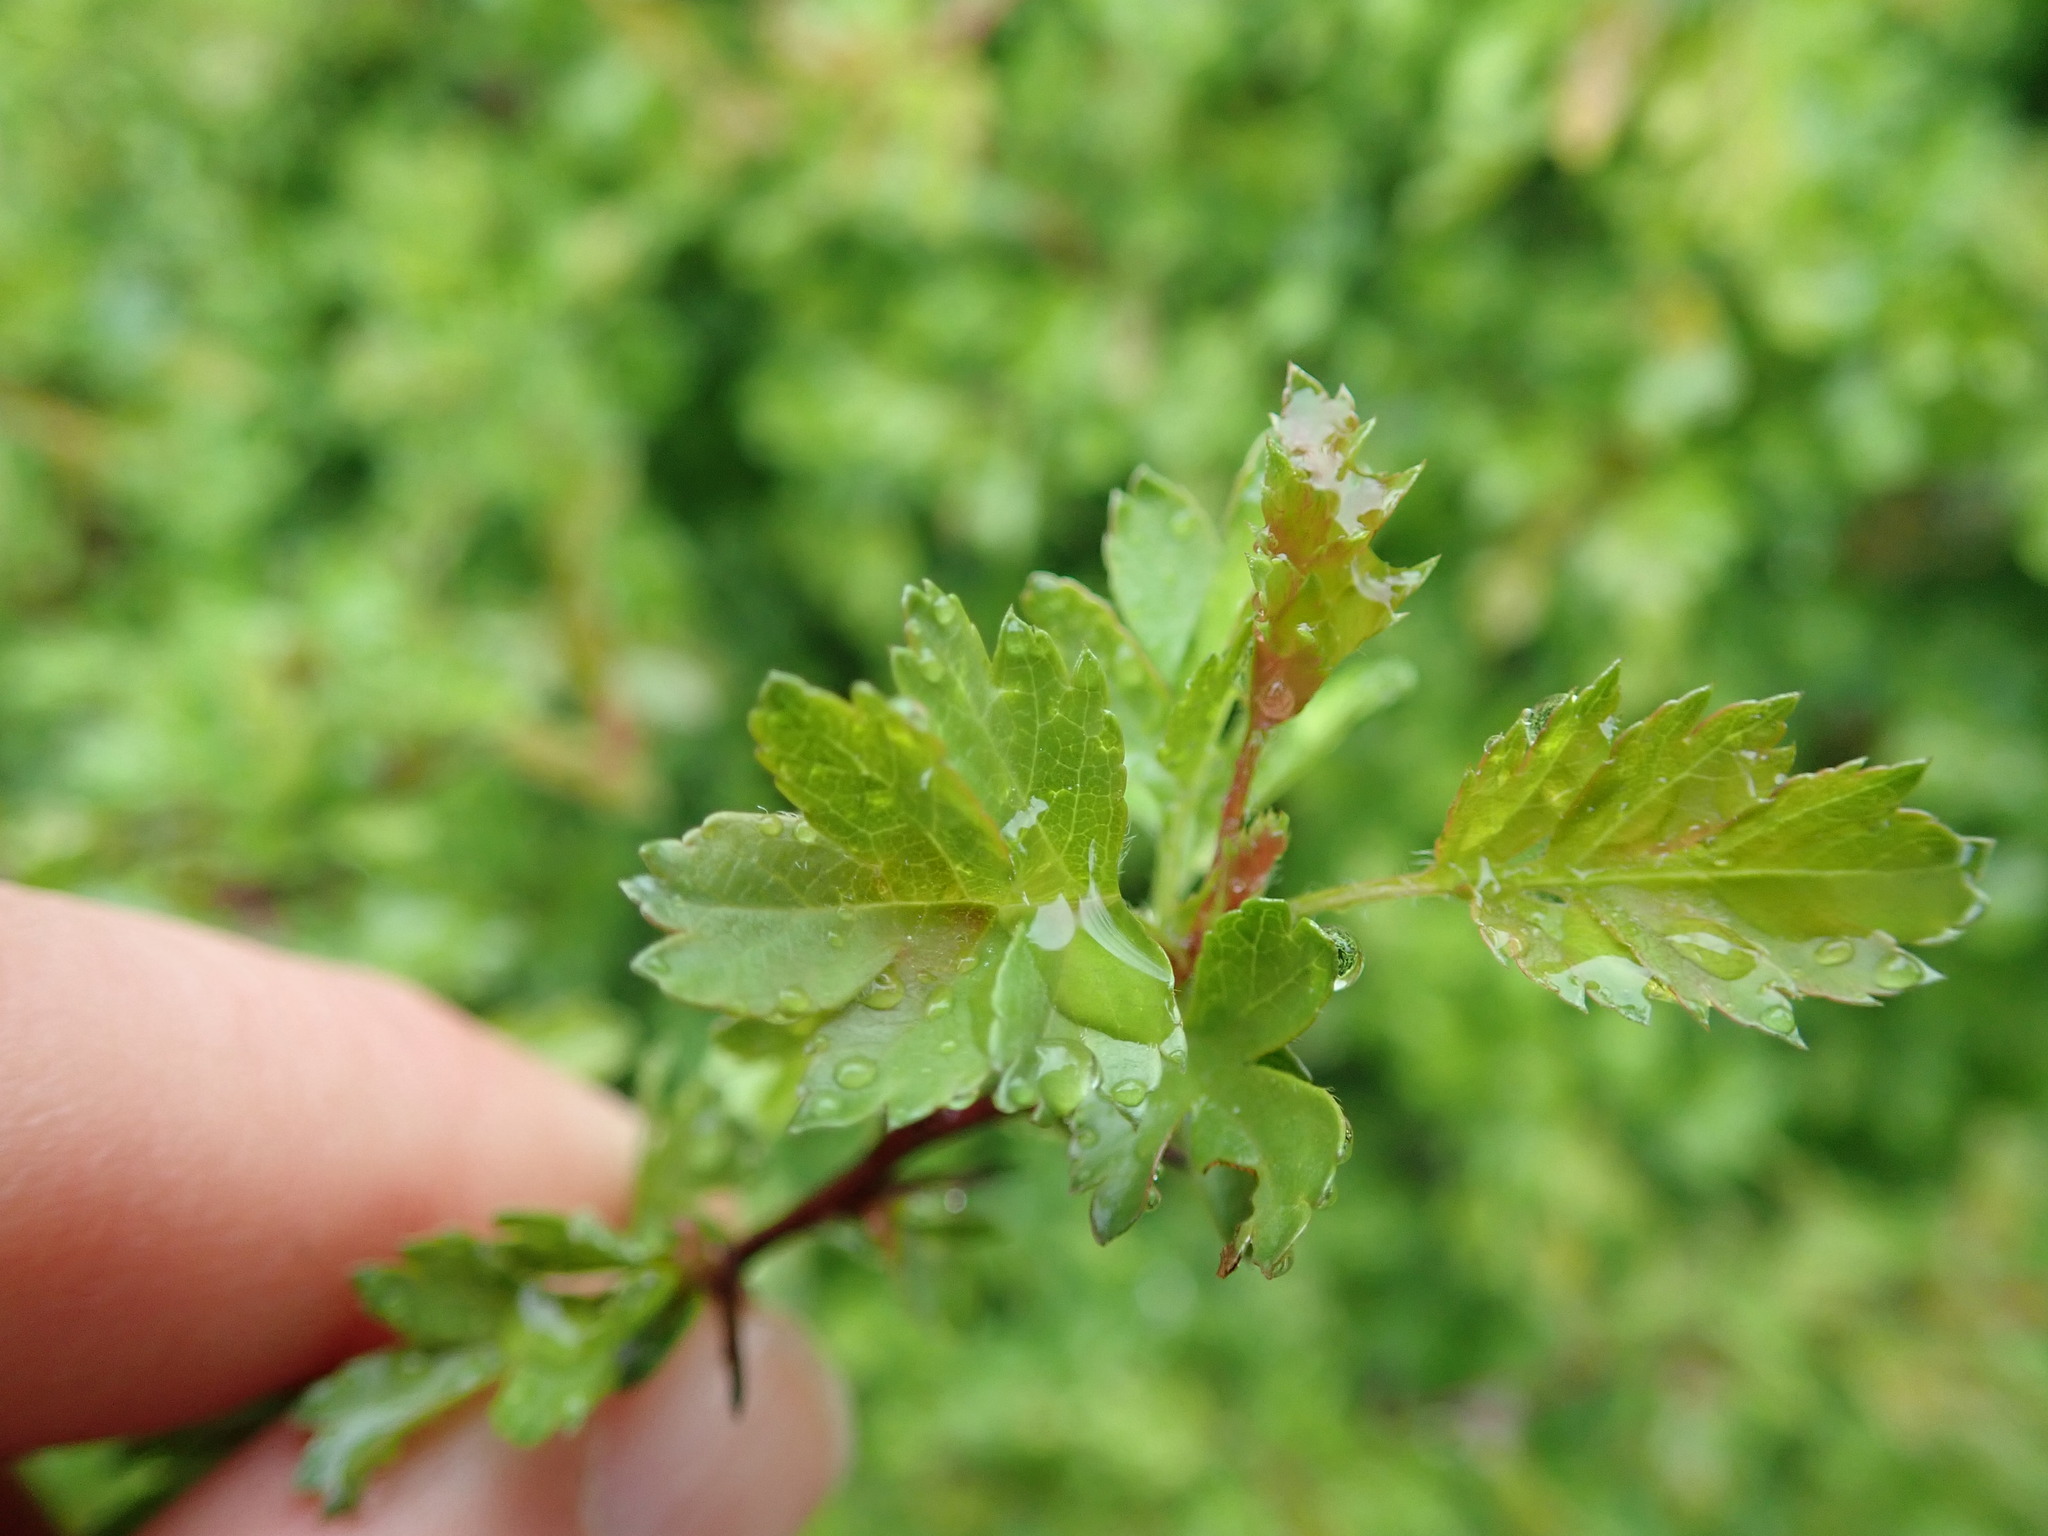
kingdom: Plantae
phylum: Tracheophyta
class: Magnoliopsida
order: Rosales
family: Rosaceae
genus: Crataegus
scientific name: Crataegus monogyna
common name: Hawthorn
